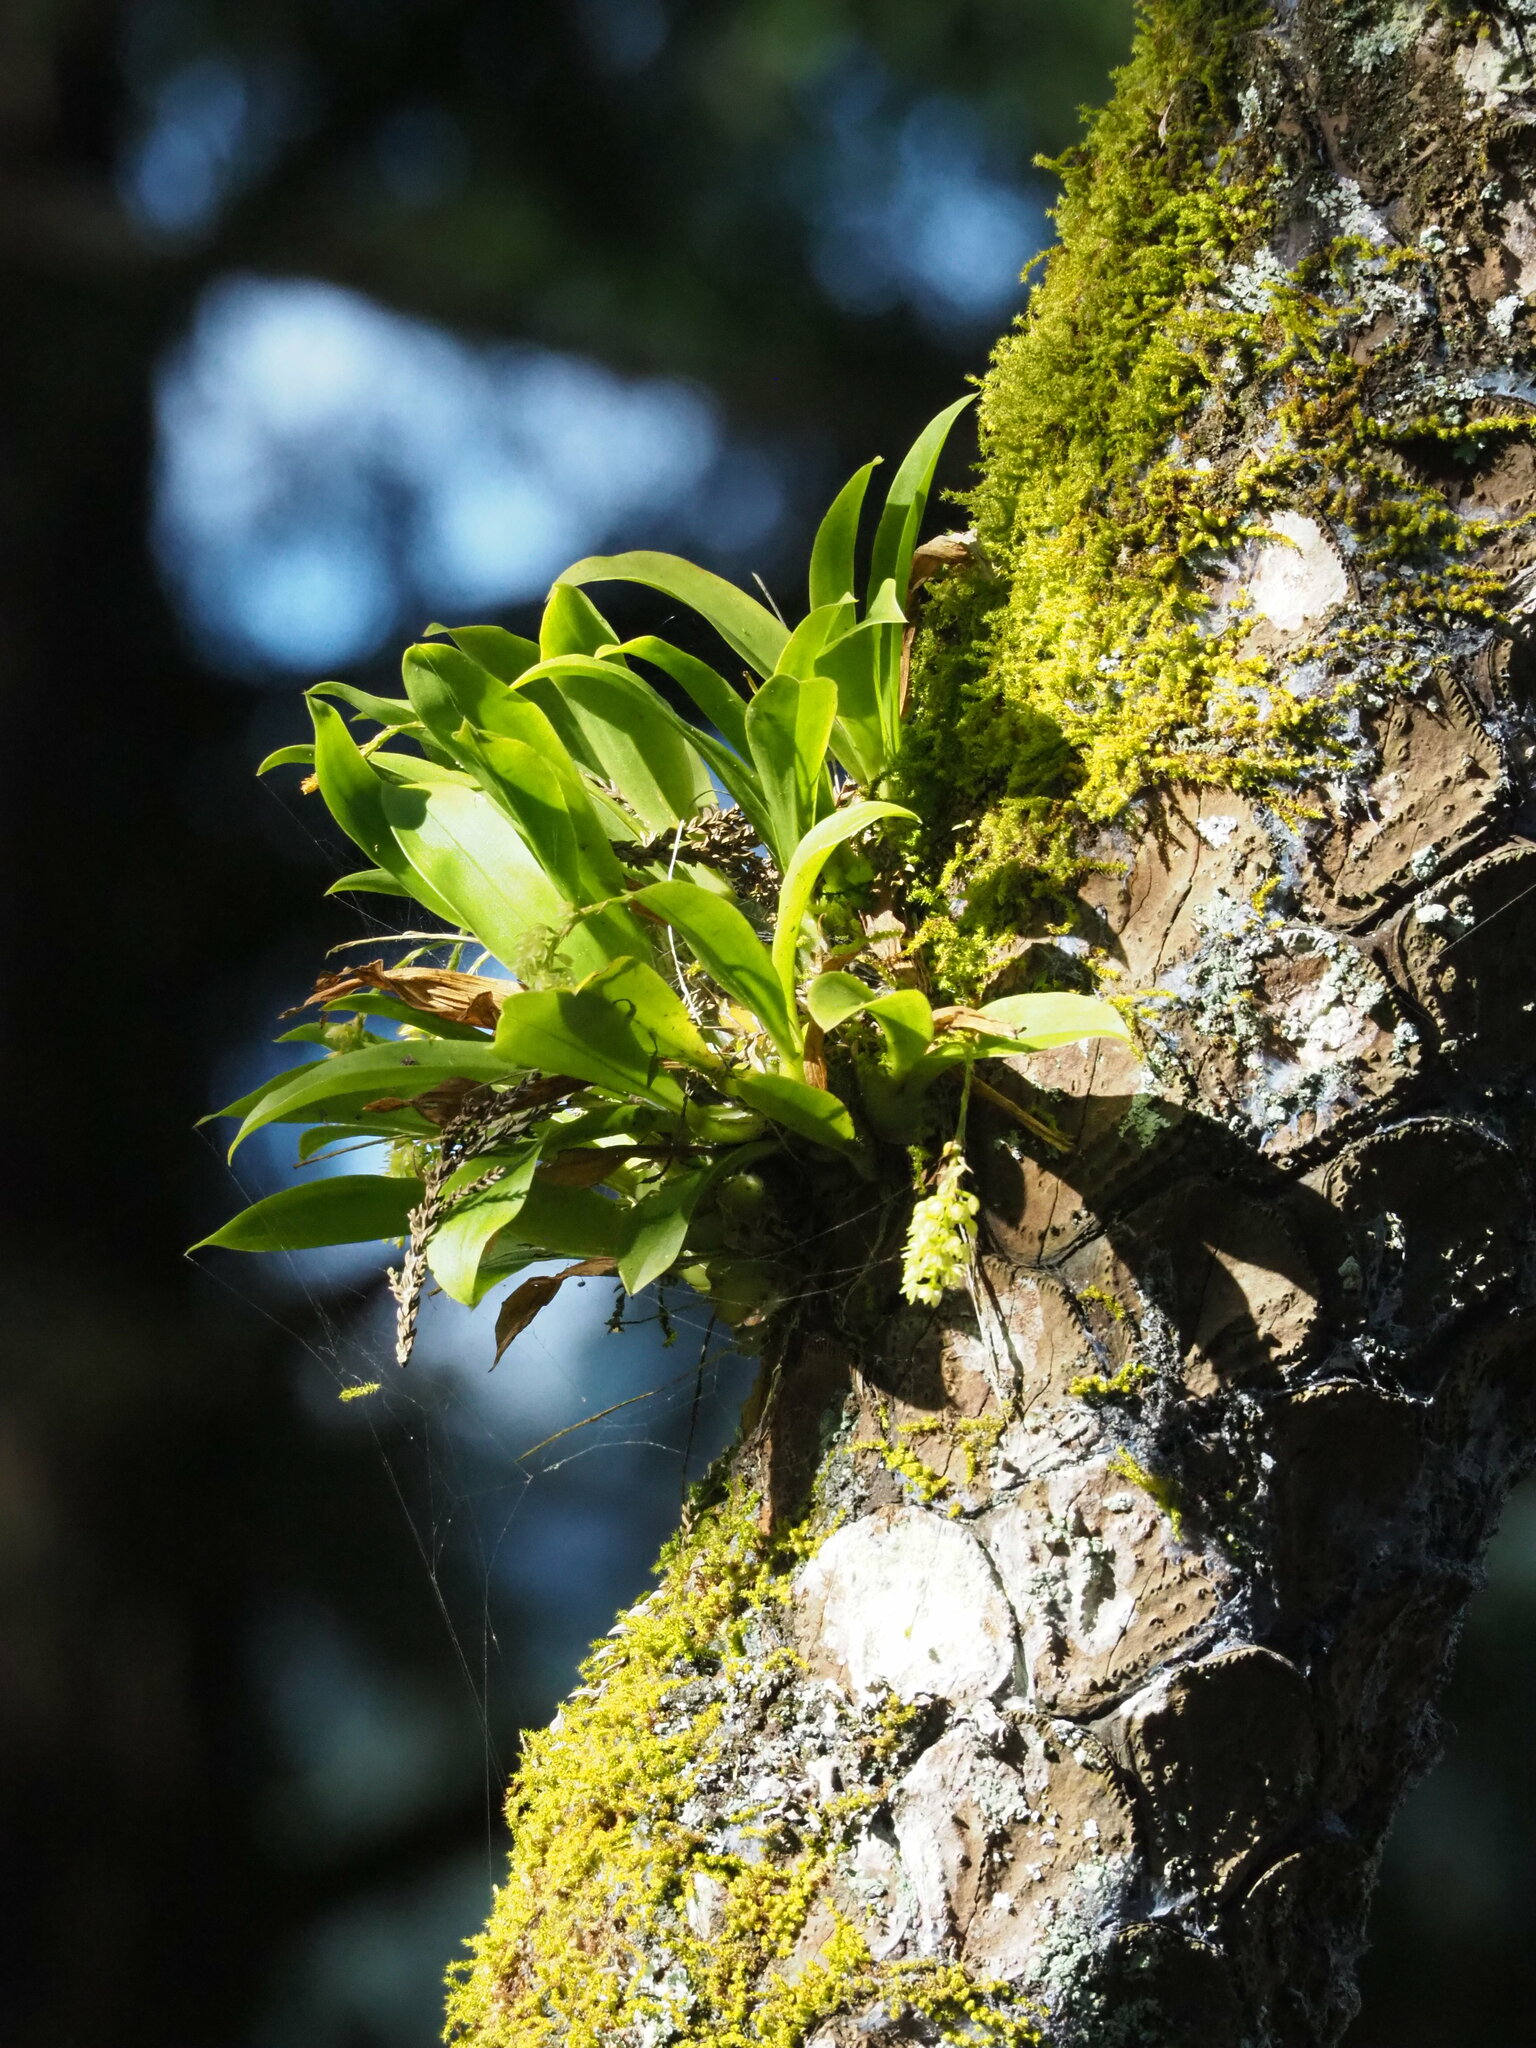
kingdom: Plantae
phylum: Tracheophyta
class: Liliopsida
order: Asparagales
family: Orchidaceae
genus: Liparis
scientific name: Liparis elliptica
